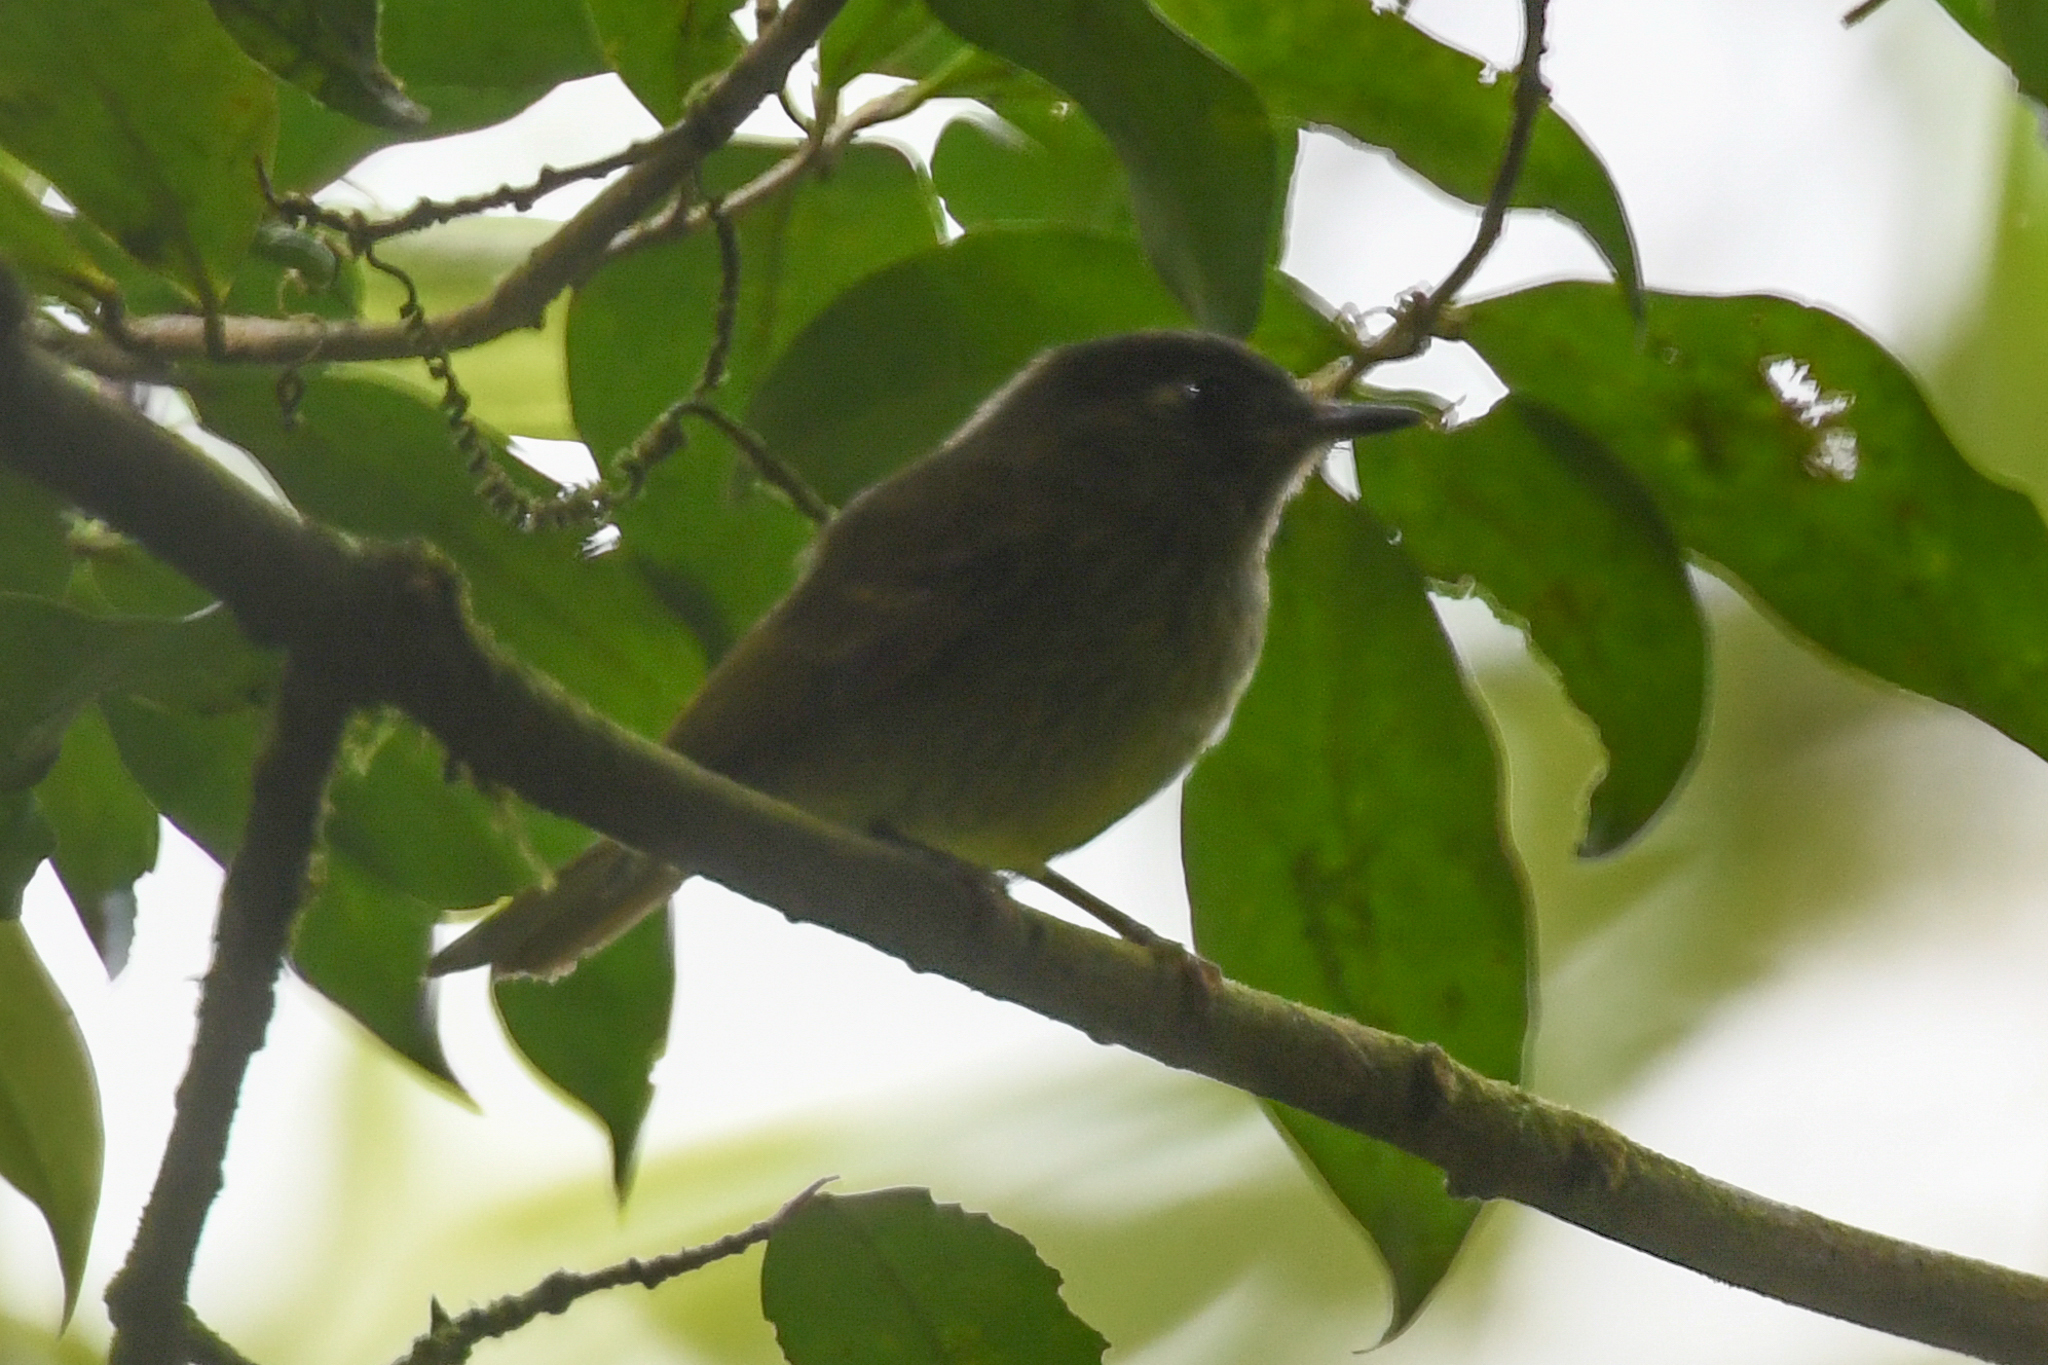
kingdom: Animalia
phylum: Chordata
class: Aves
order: Passeriformes
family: Tyrannidae
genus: Mionectes
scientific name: Mionectes olivaceus
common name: Olive-striped flycatcher
